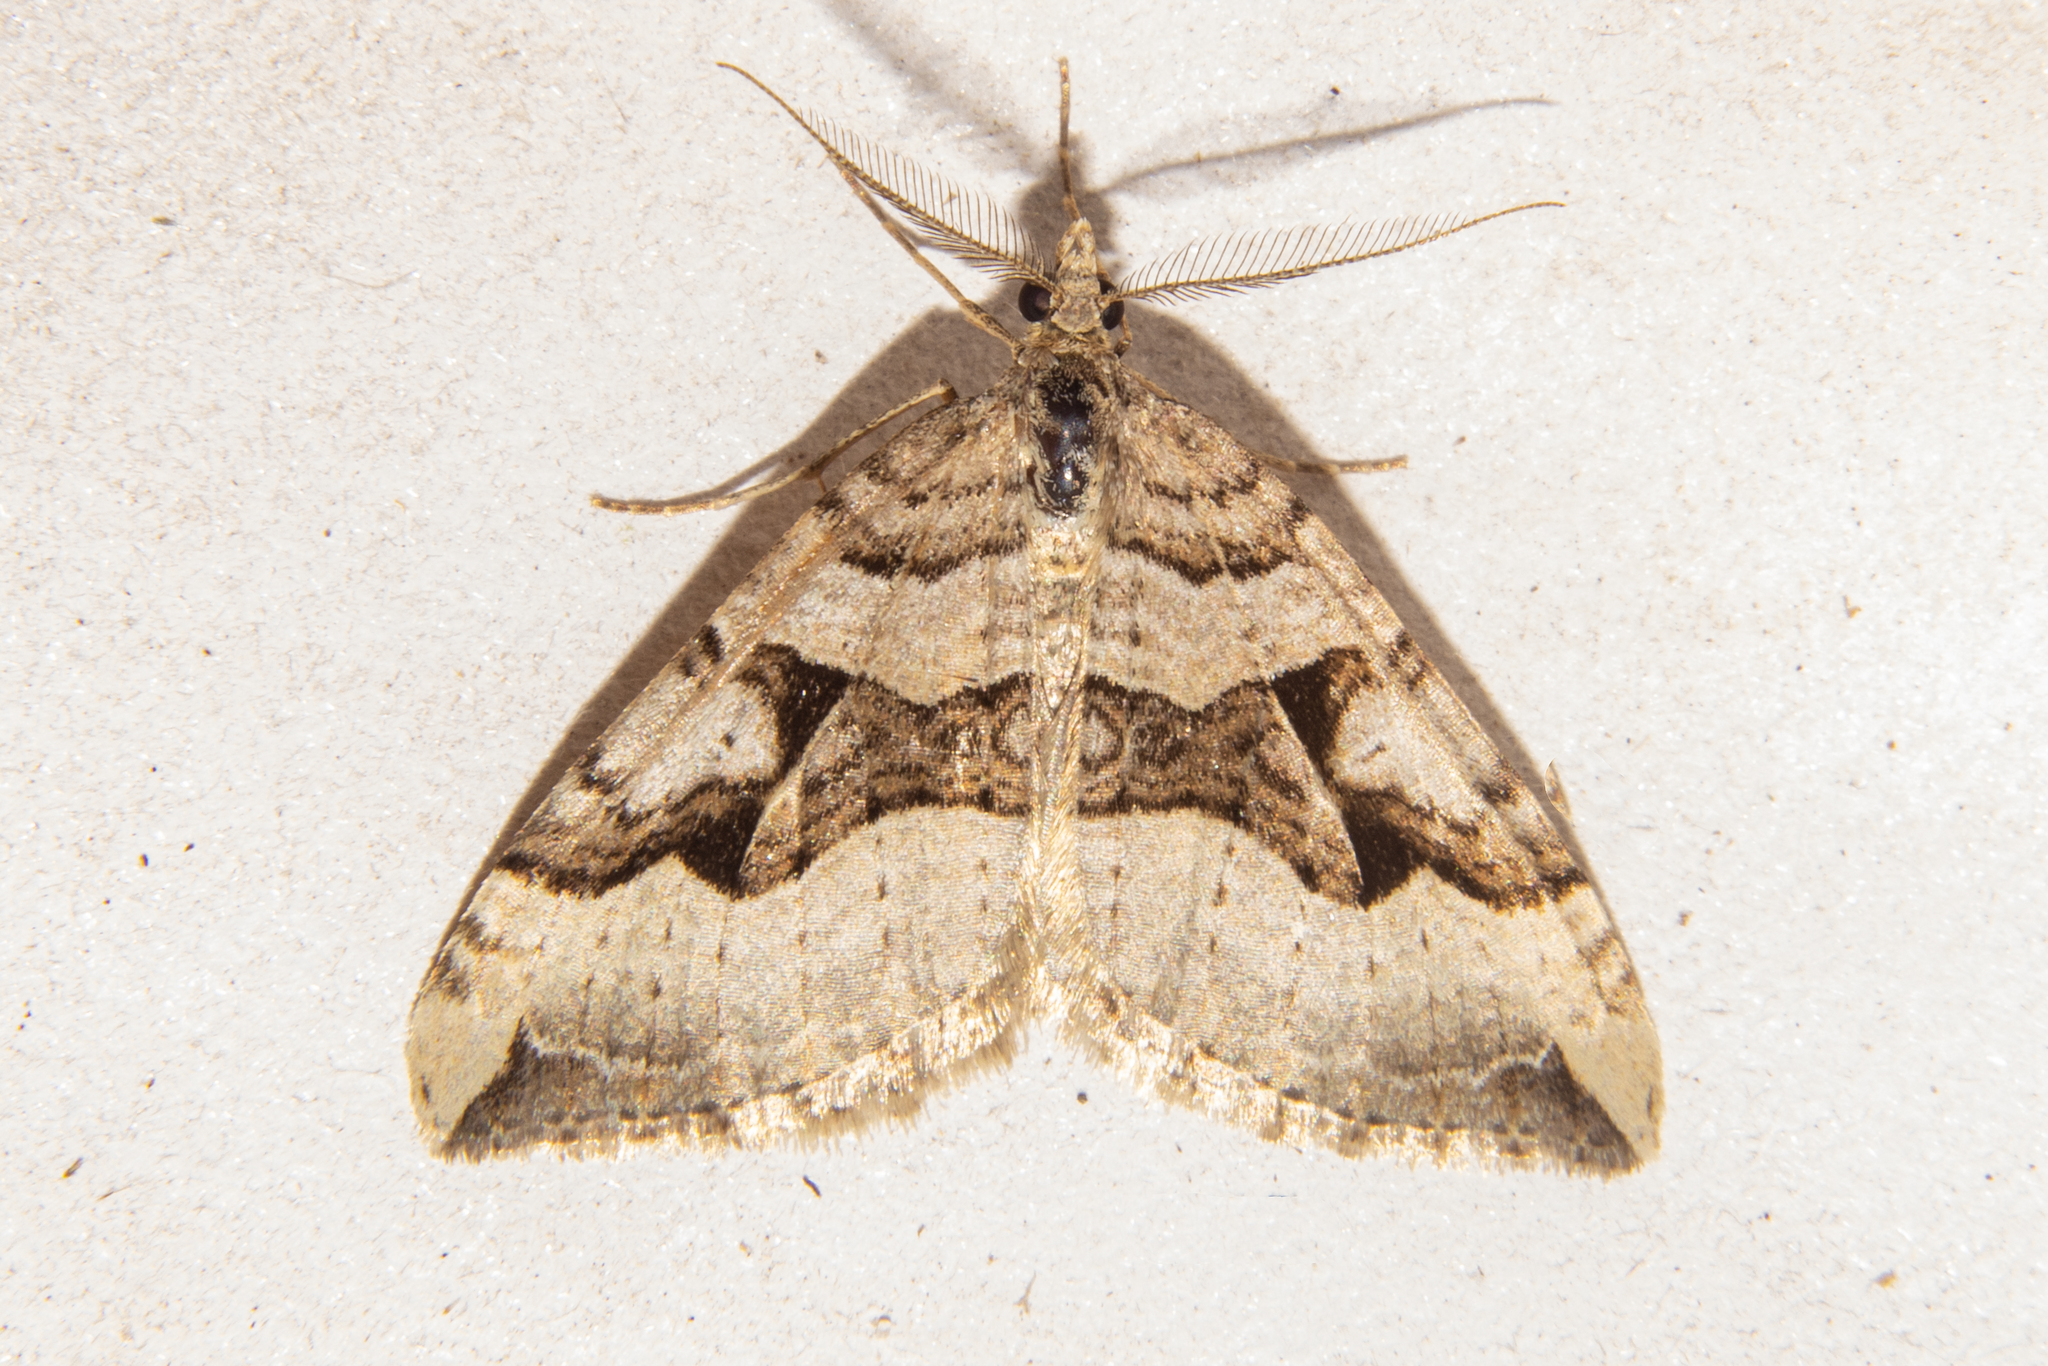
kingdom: Animalia
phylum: Arthropoda
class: Insecta
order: Lepidoptera
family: Geometridae
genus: Xanthorhoe
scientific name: Xanthorhoe semifissata
